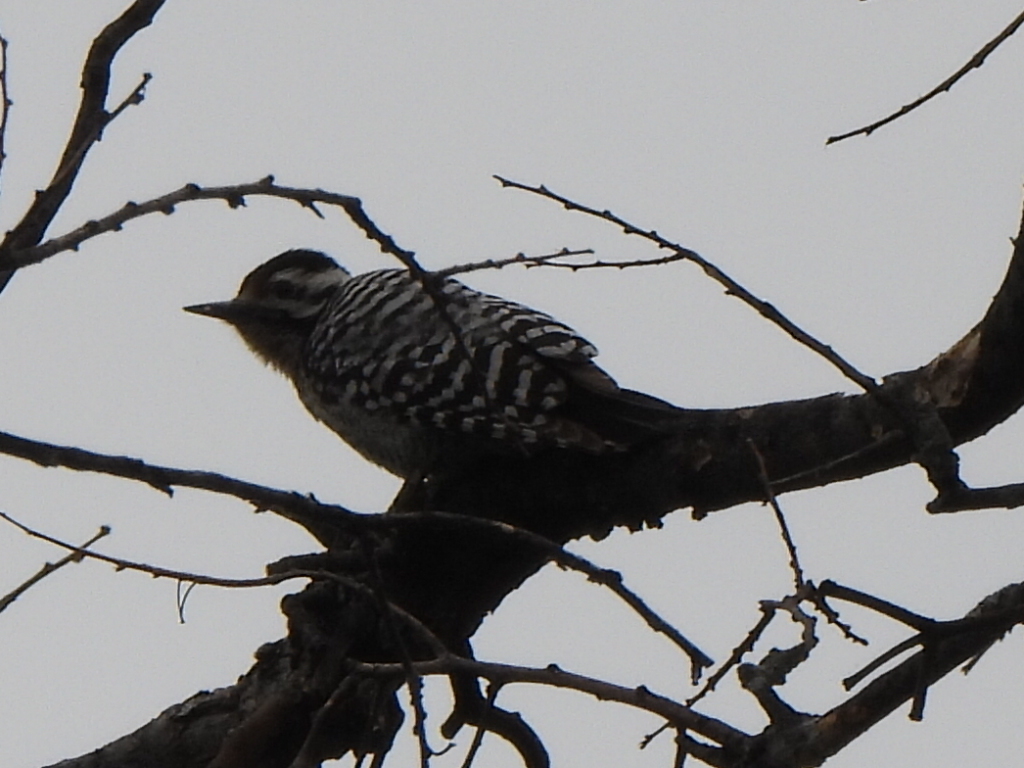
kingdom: Animalia
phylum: Chordata
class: Aves
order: Piciformes
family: Picidae
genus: Dryobates
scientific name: Dryobates scalaris
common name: Ladder-backed woodpecker
